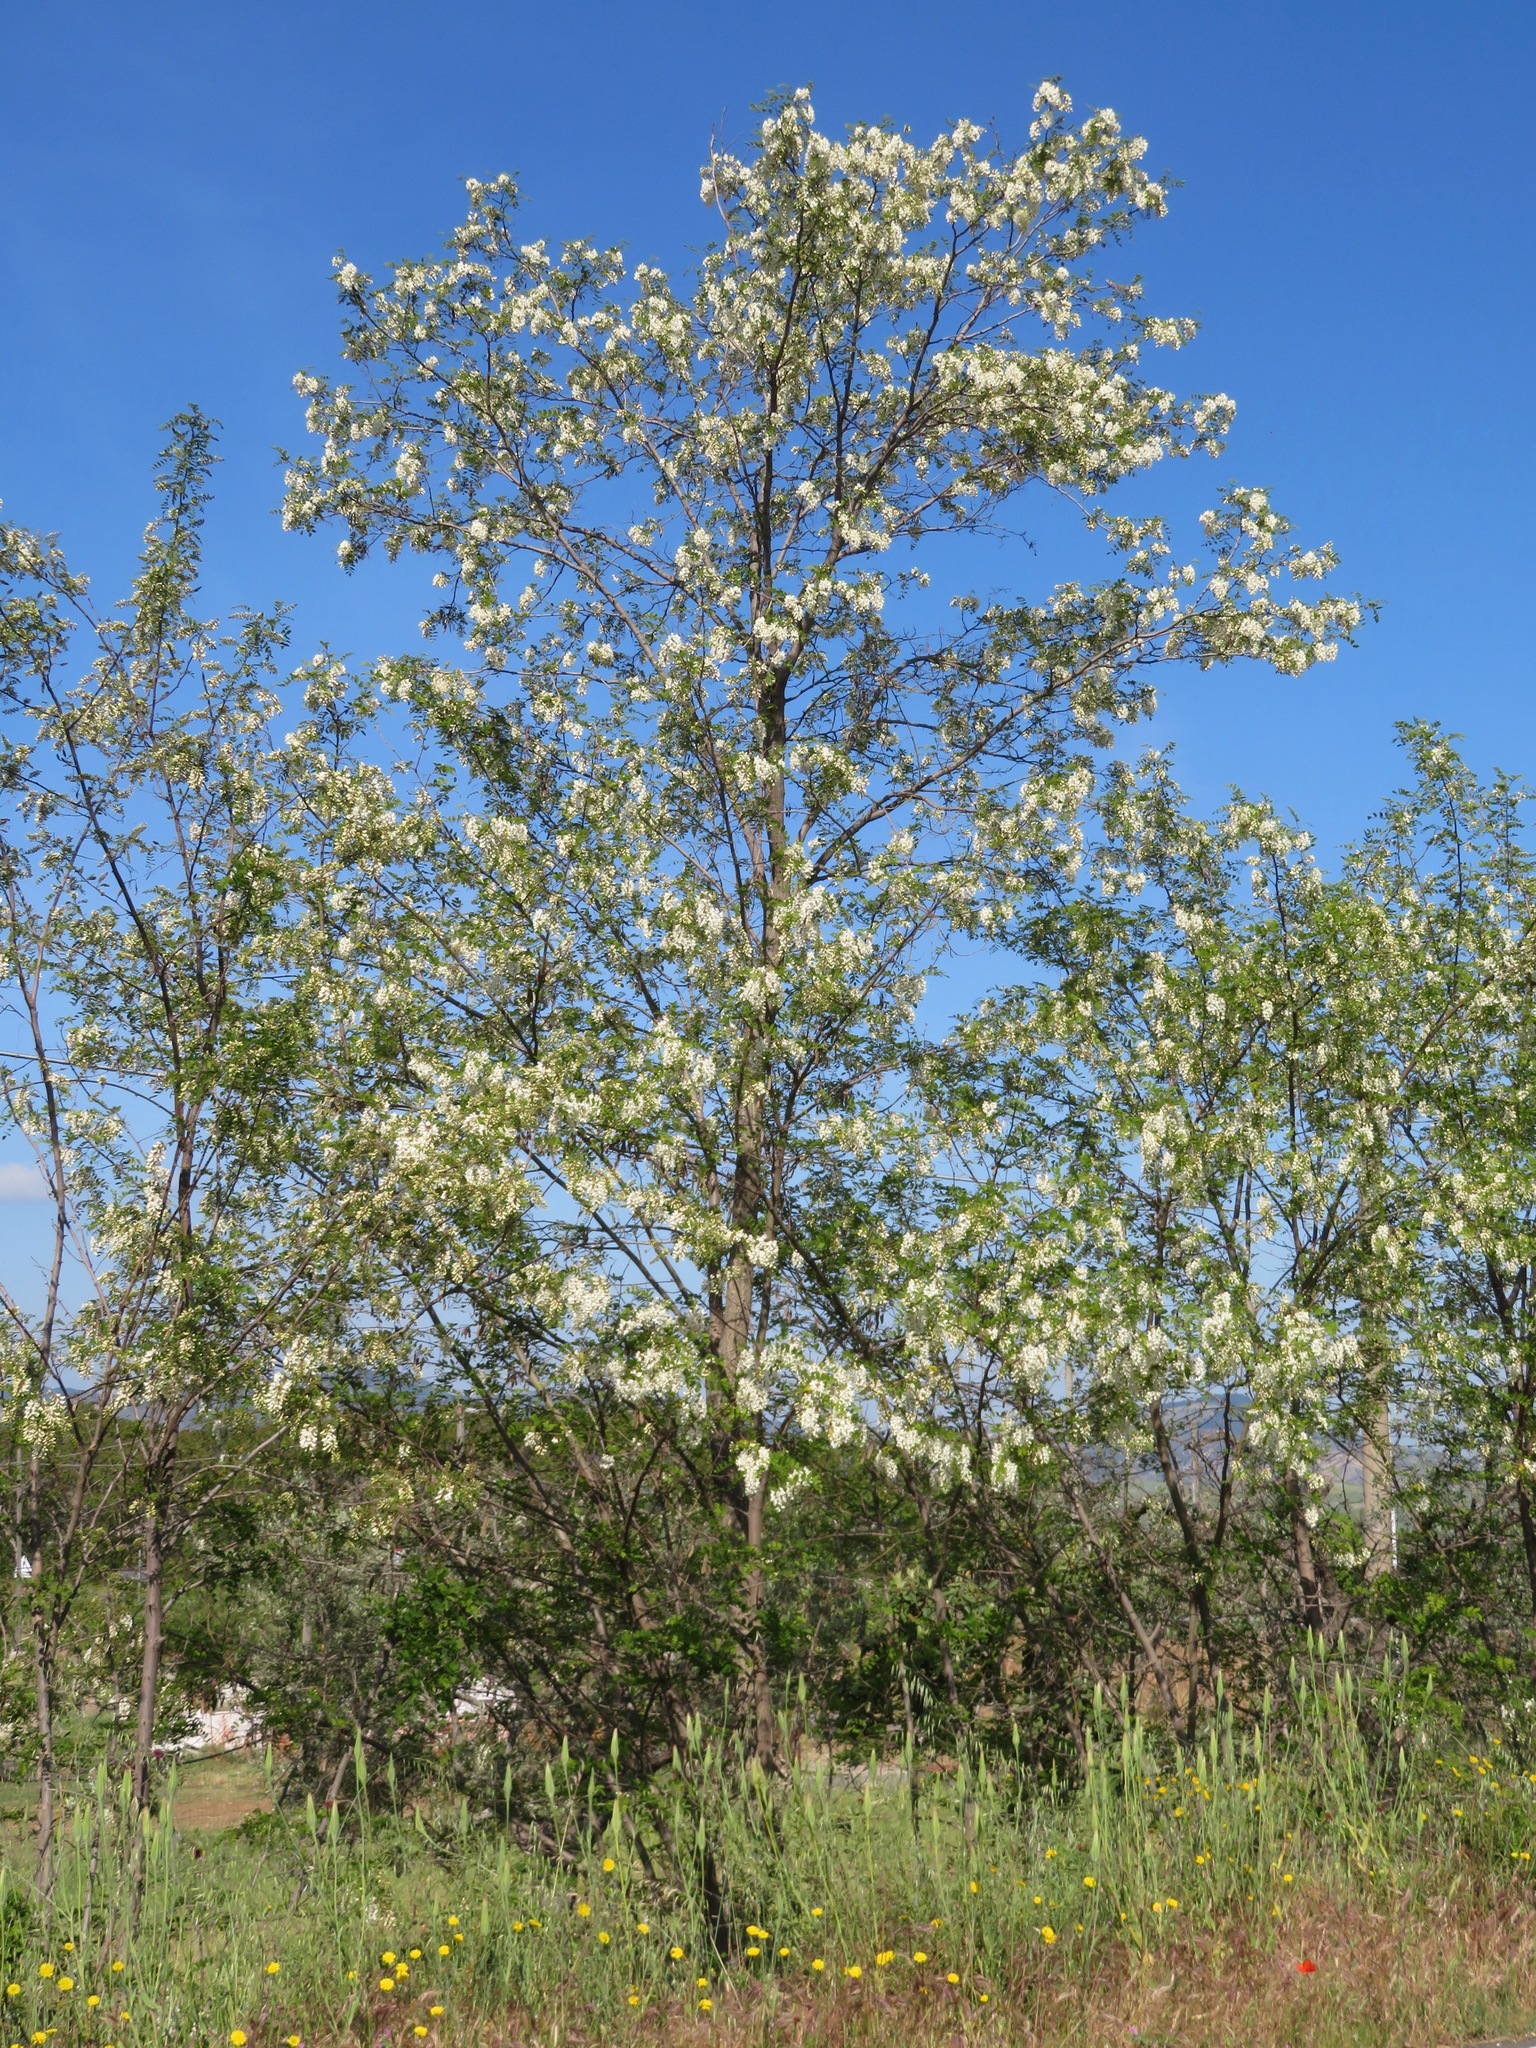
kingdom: Plantae
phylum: Tracheophyta
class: Magnoliopsida
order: Fabales
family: Fabaceae
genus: Robinia
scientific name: Robinia pseudoacacia
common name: Black locust
